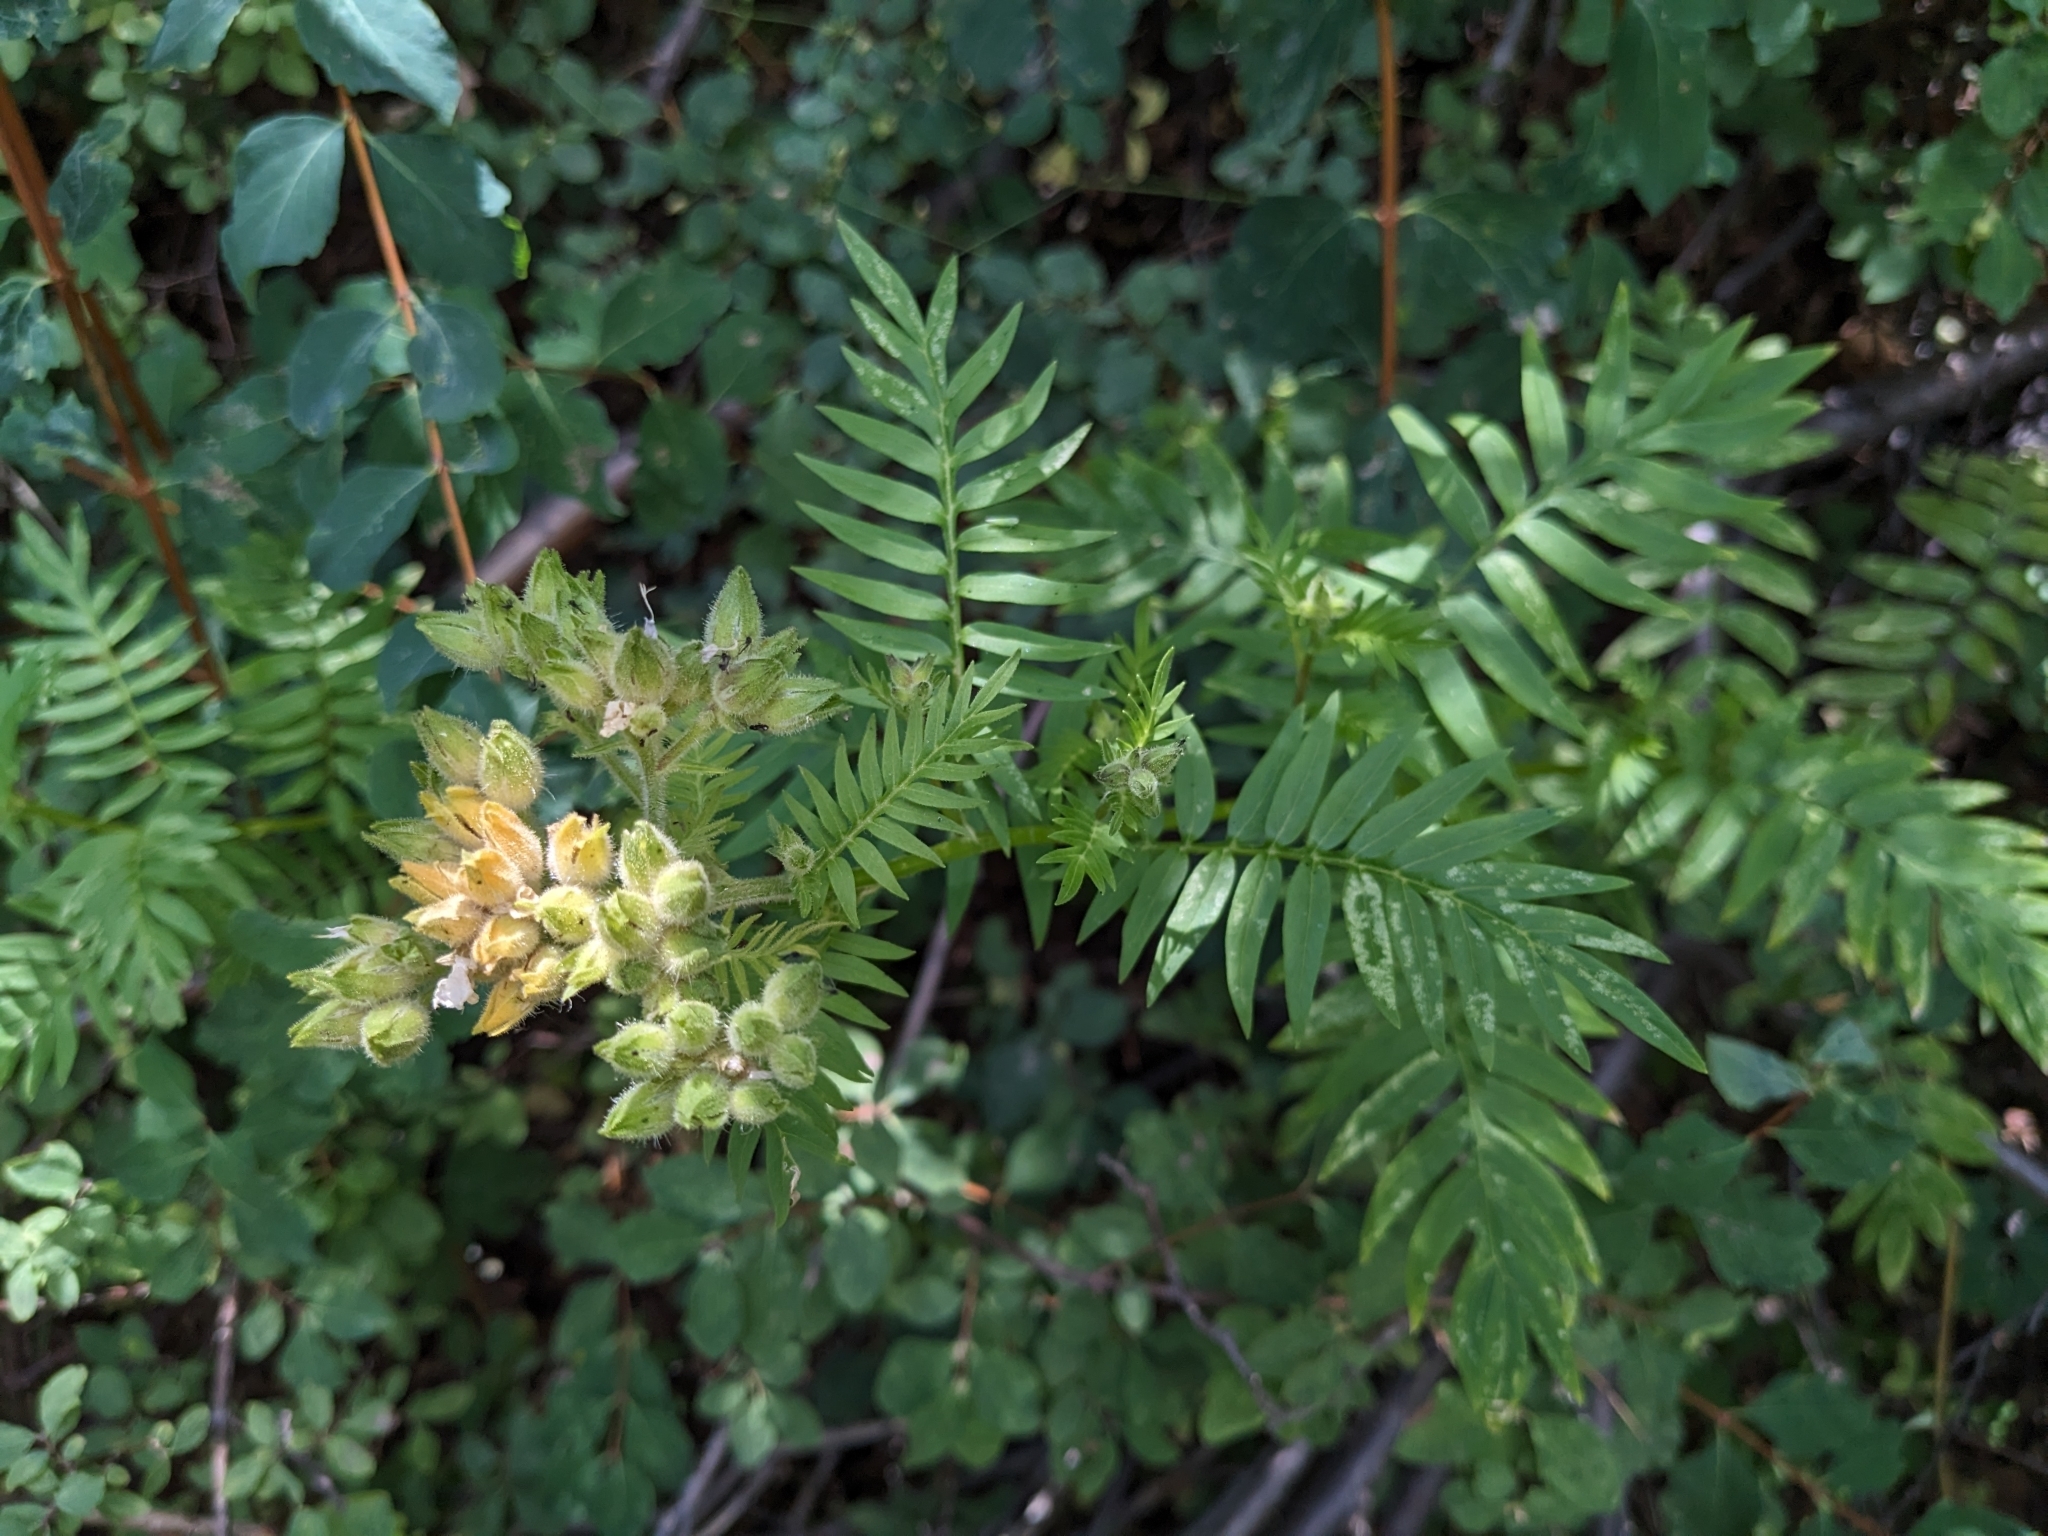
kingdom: Plantae
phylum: Tracheophyta
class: Magnoliopsida
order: Ericales
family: Polemoniaceae
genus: Polemonium
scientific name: Polemonium foliosissimum
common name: Leafy jacob's-ladder
